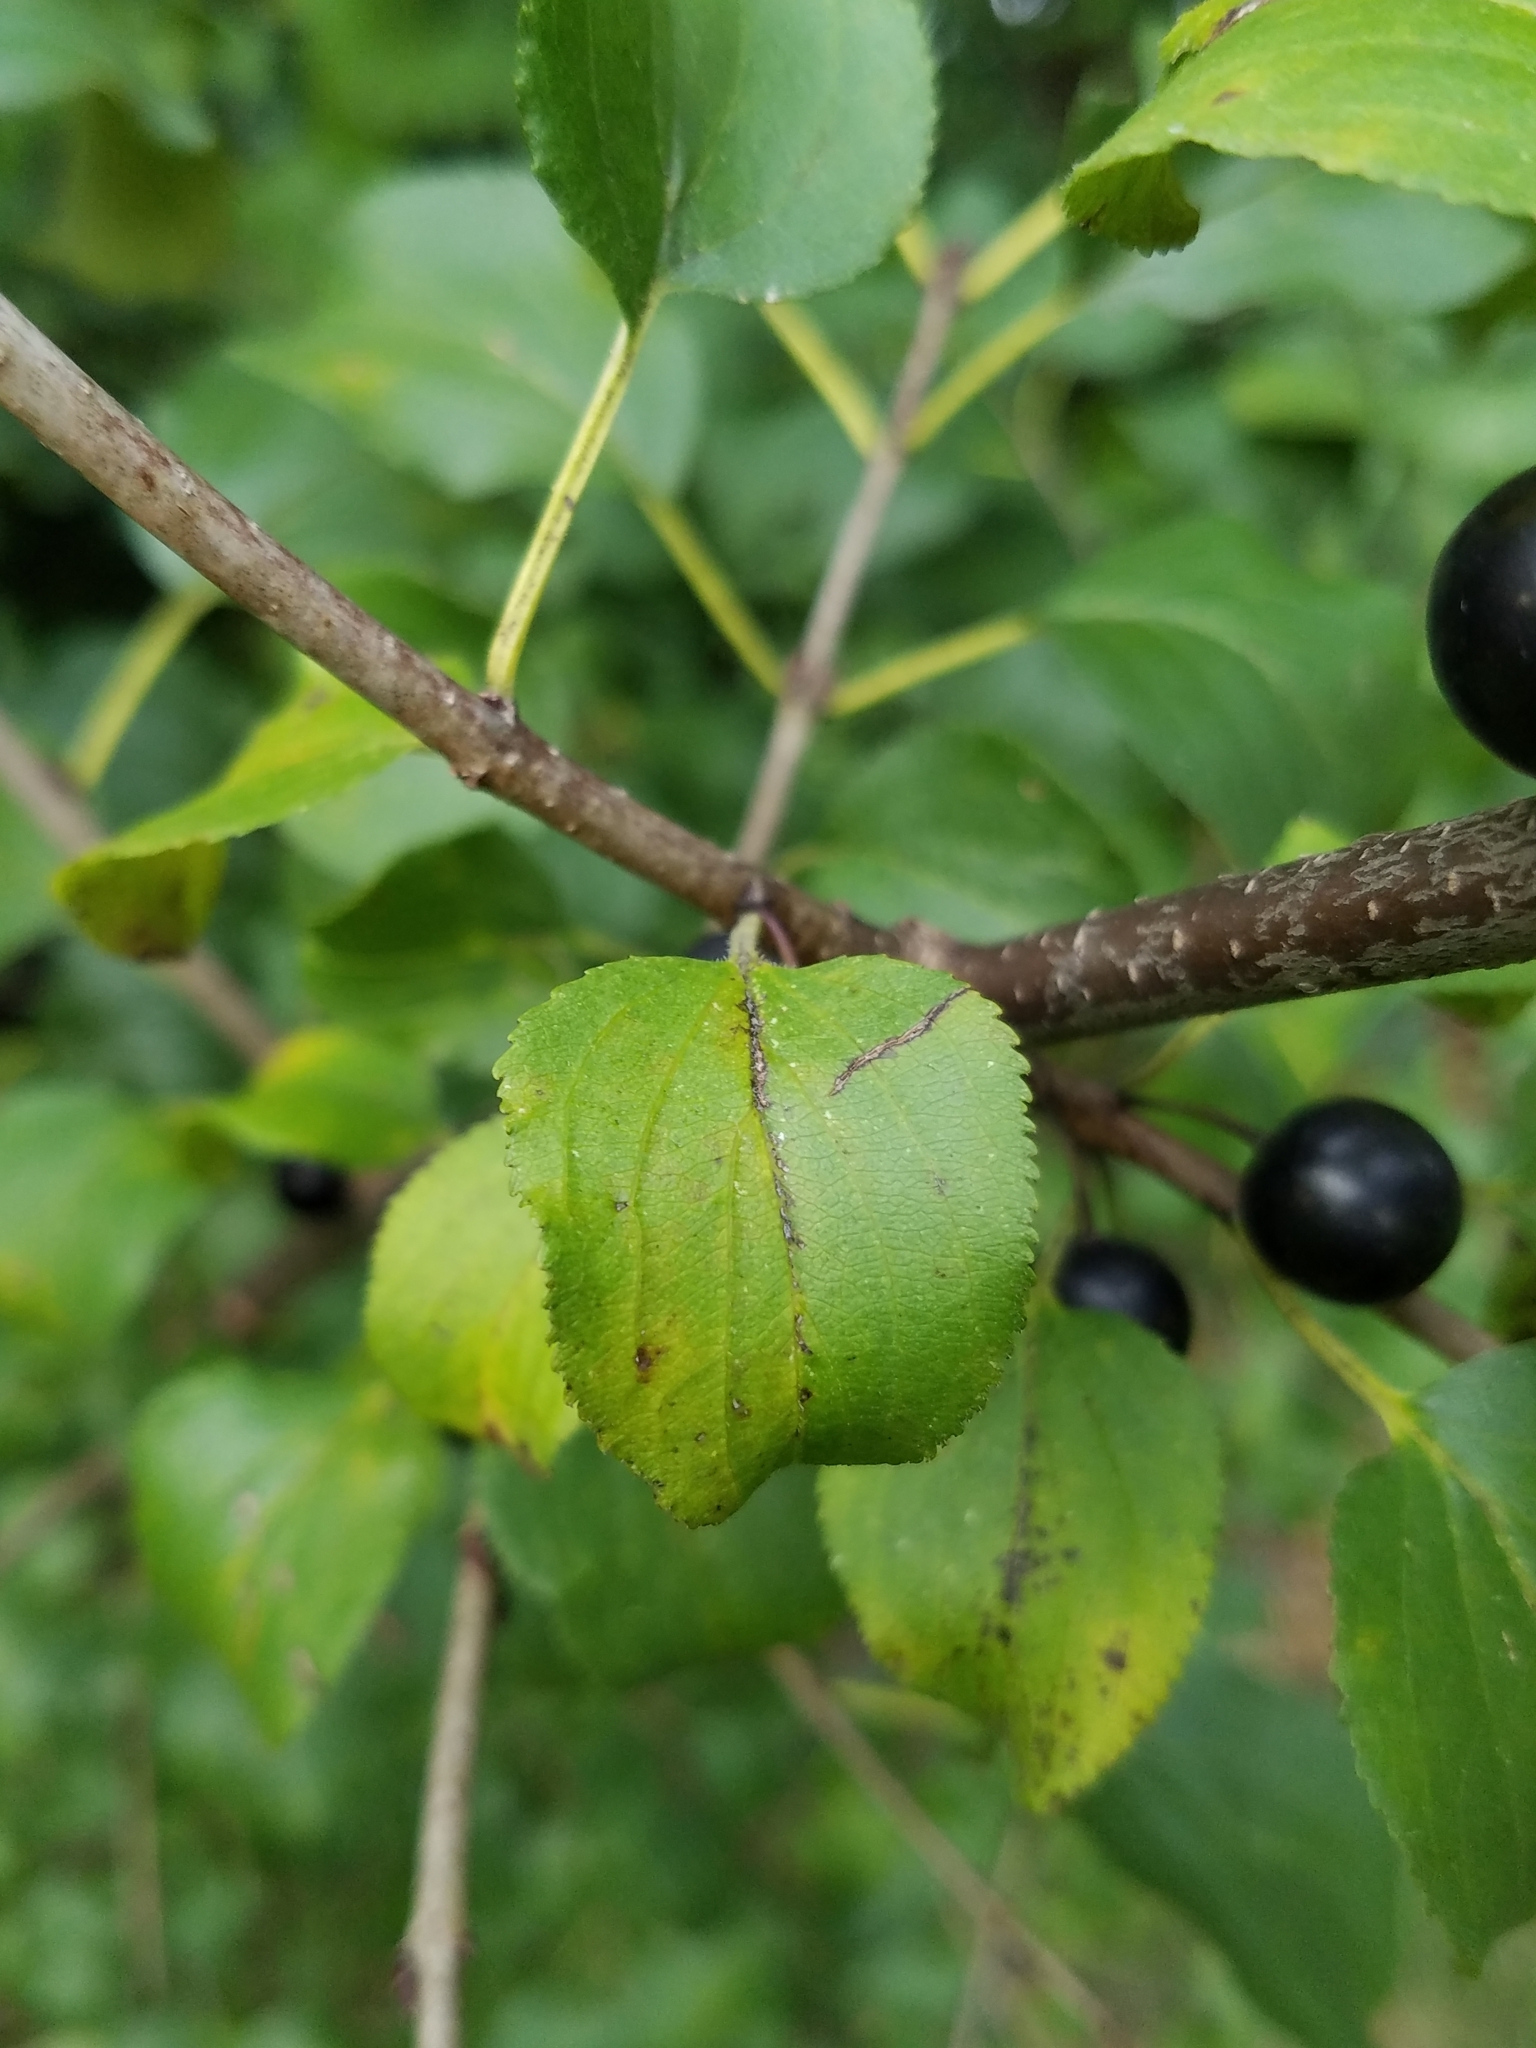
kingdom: Plantae
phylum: Tracheophyta
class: Magnoliopsida
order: Rosales
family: Rhamnaceae
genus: Rhamnus
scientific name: Rhamnus cathartica
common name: Common buckthorn
